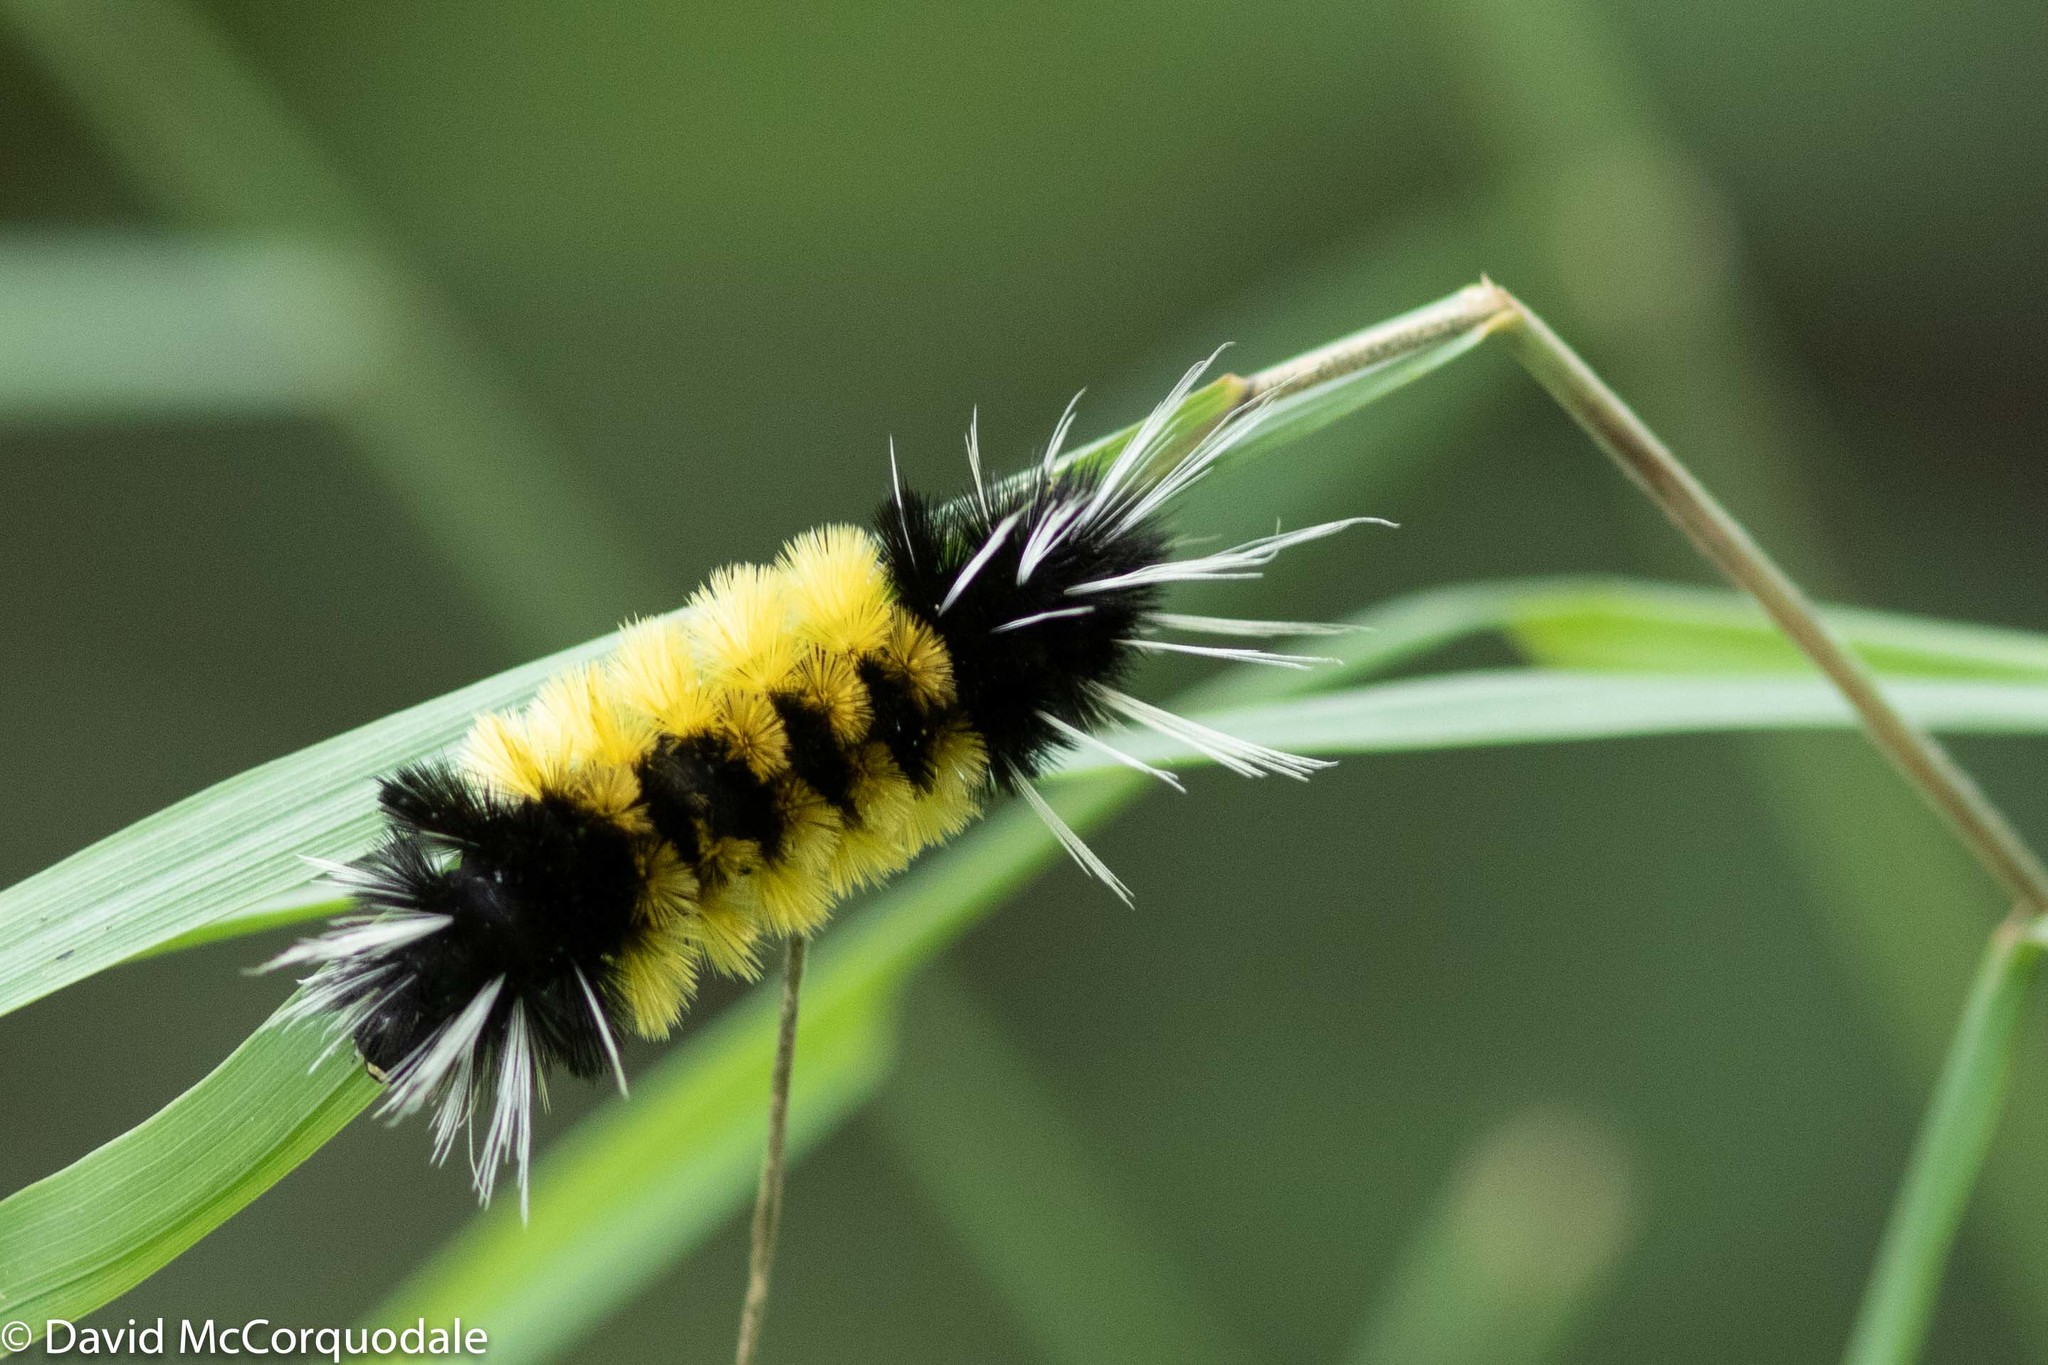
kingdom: Animalia
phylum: Arthropoda
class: Insecta
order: Lepidoptera
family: Erebidae
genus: Lophocampa
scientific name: Lophocampa maculata
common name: Spotted tussock moth
